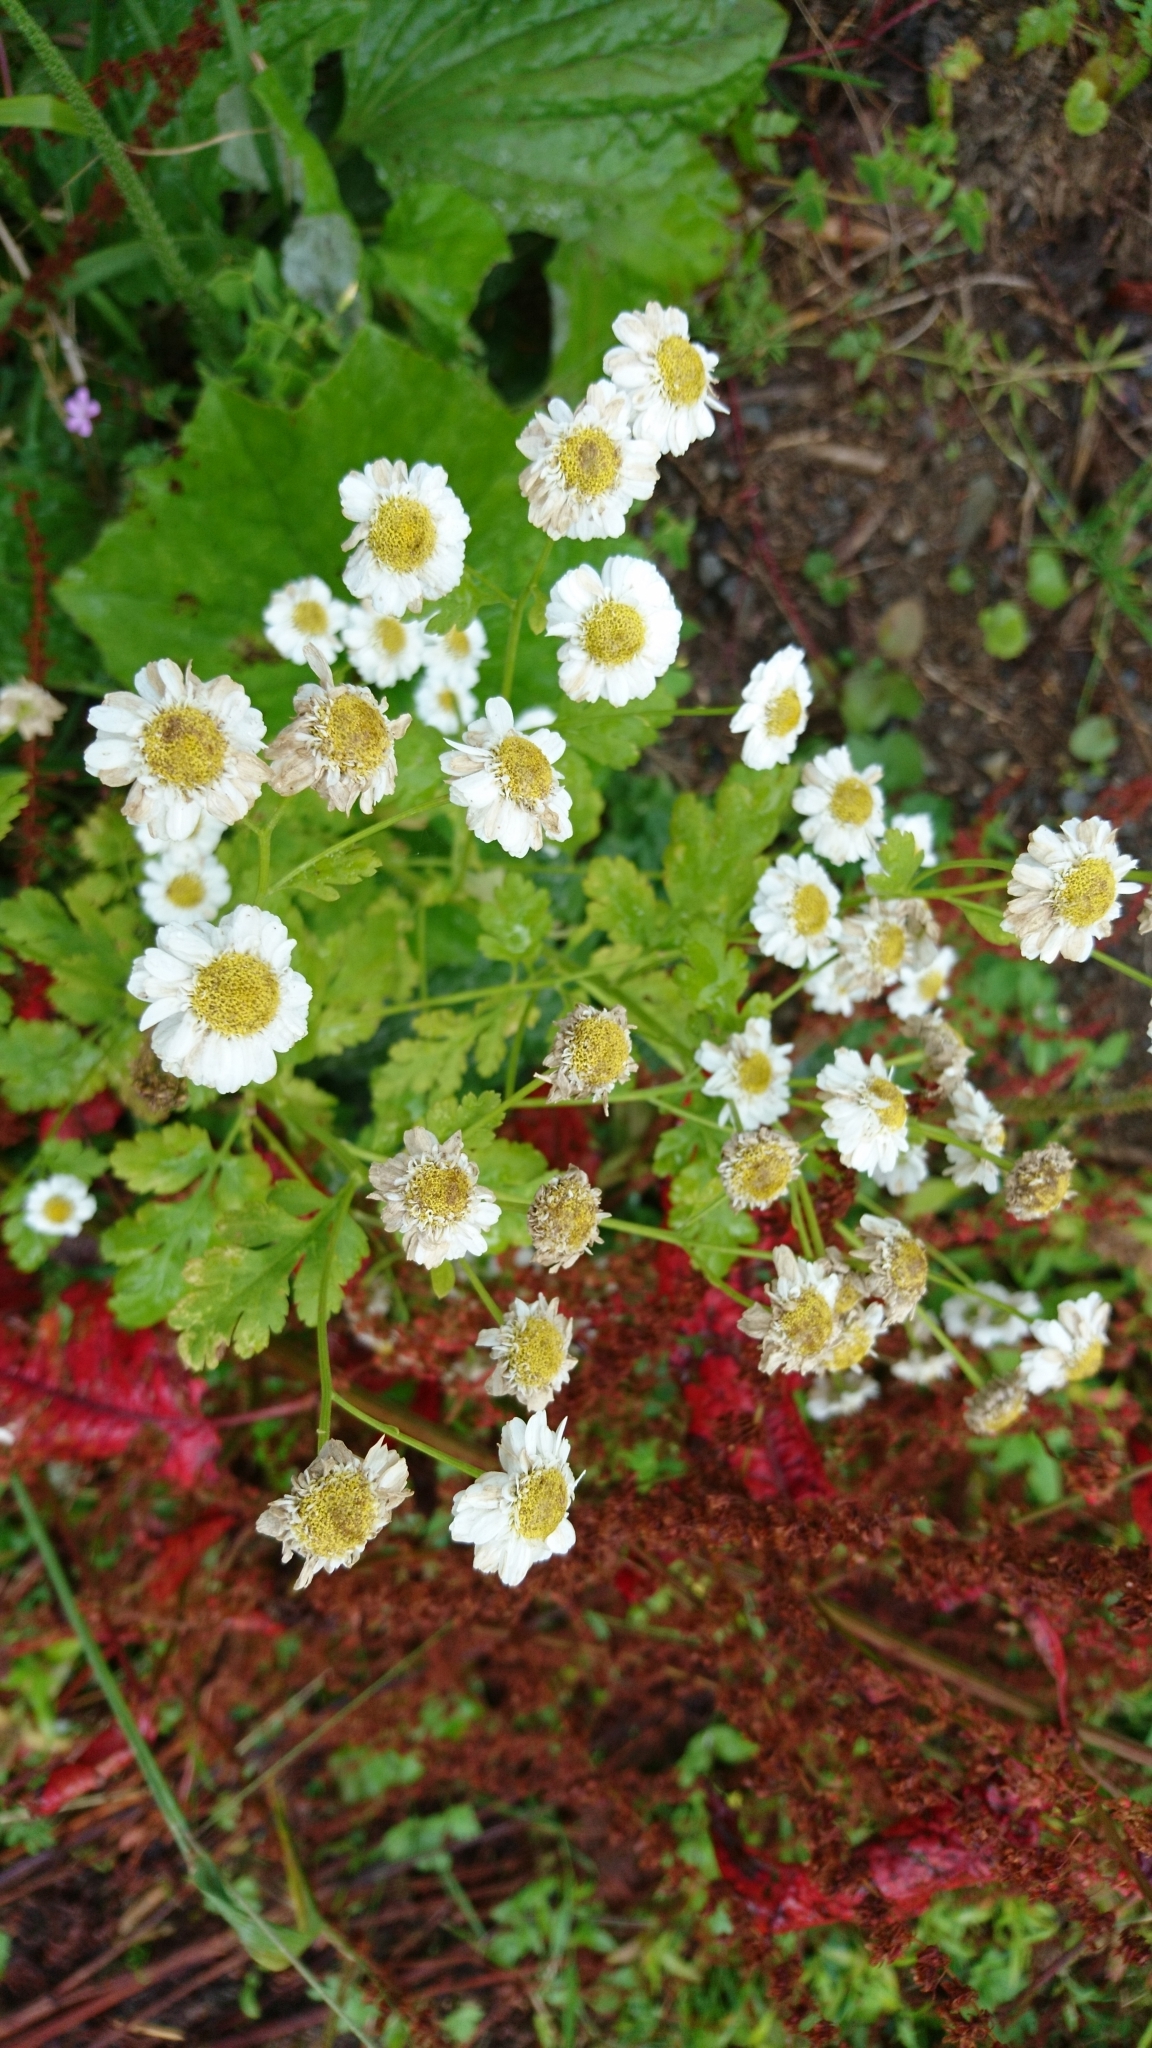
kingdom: Plantae
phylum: Tracheophyta
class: Magnoliopsida
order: Asterales
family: Asteraceae
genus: Tanacetum
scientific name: Tanacetum parthenium
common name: Feverfew
